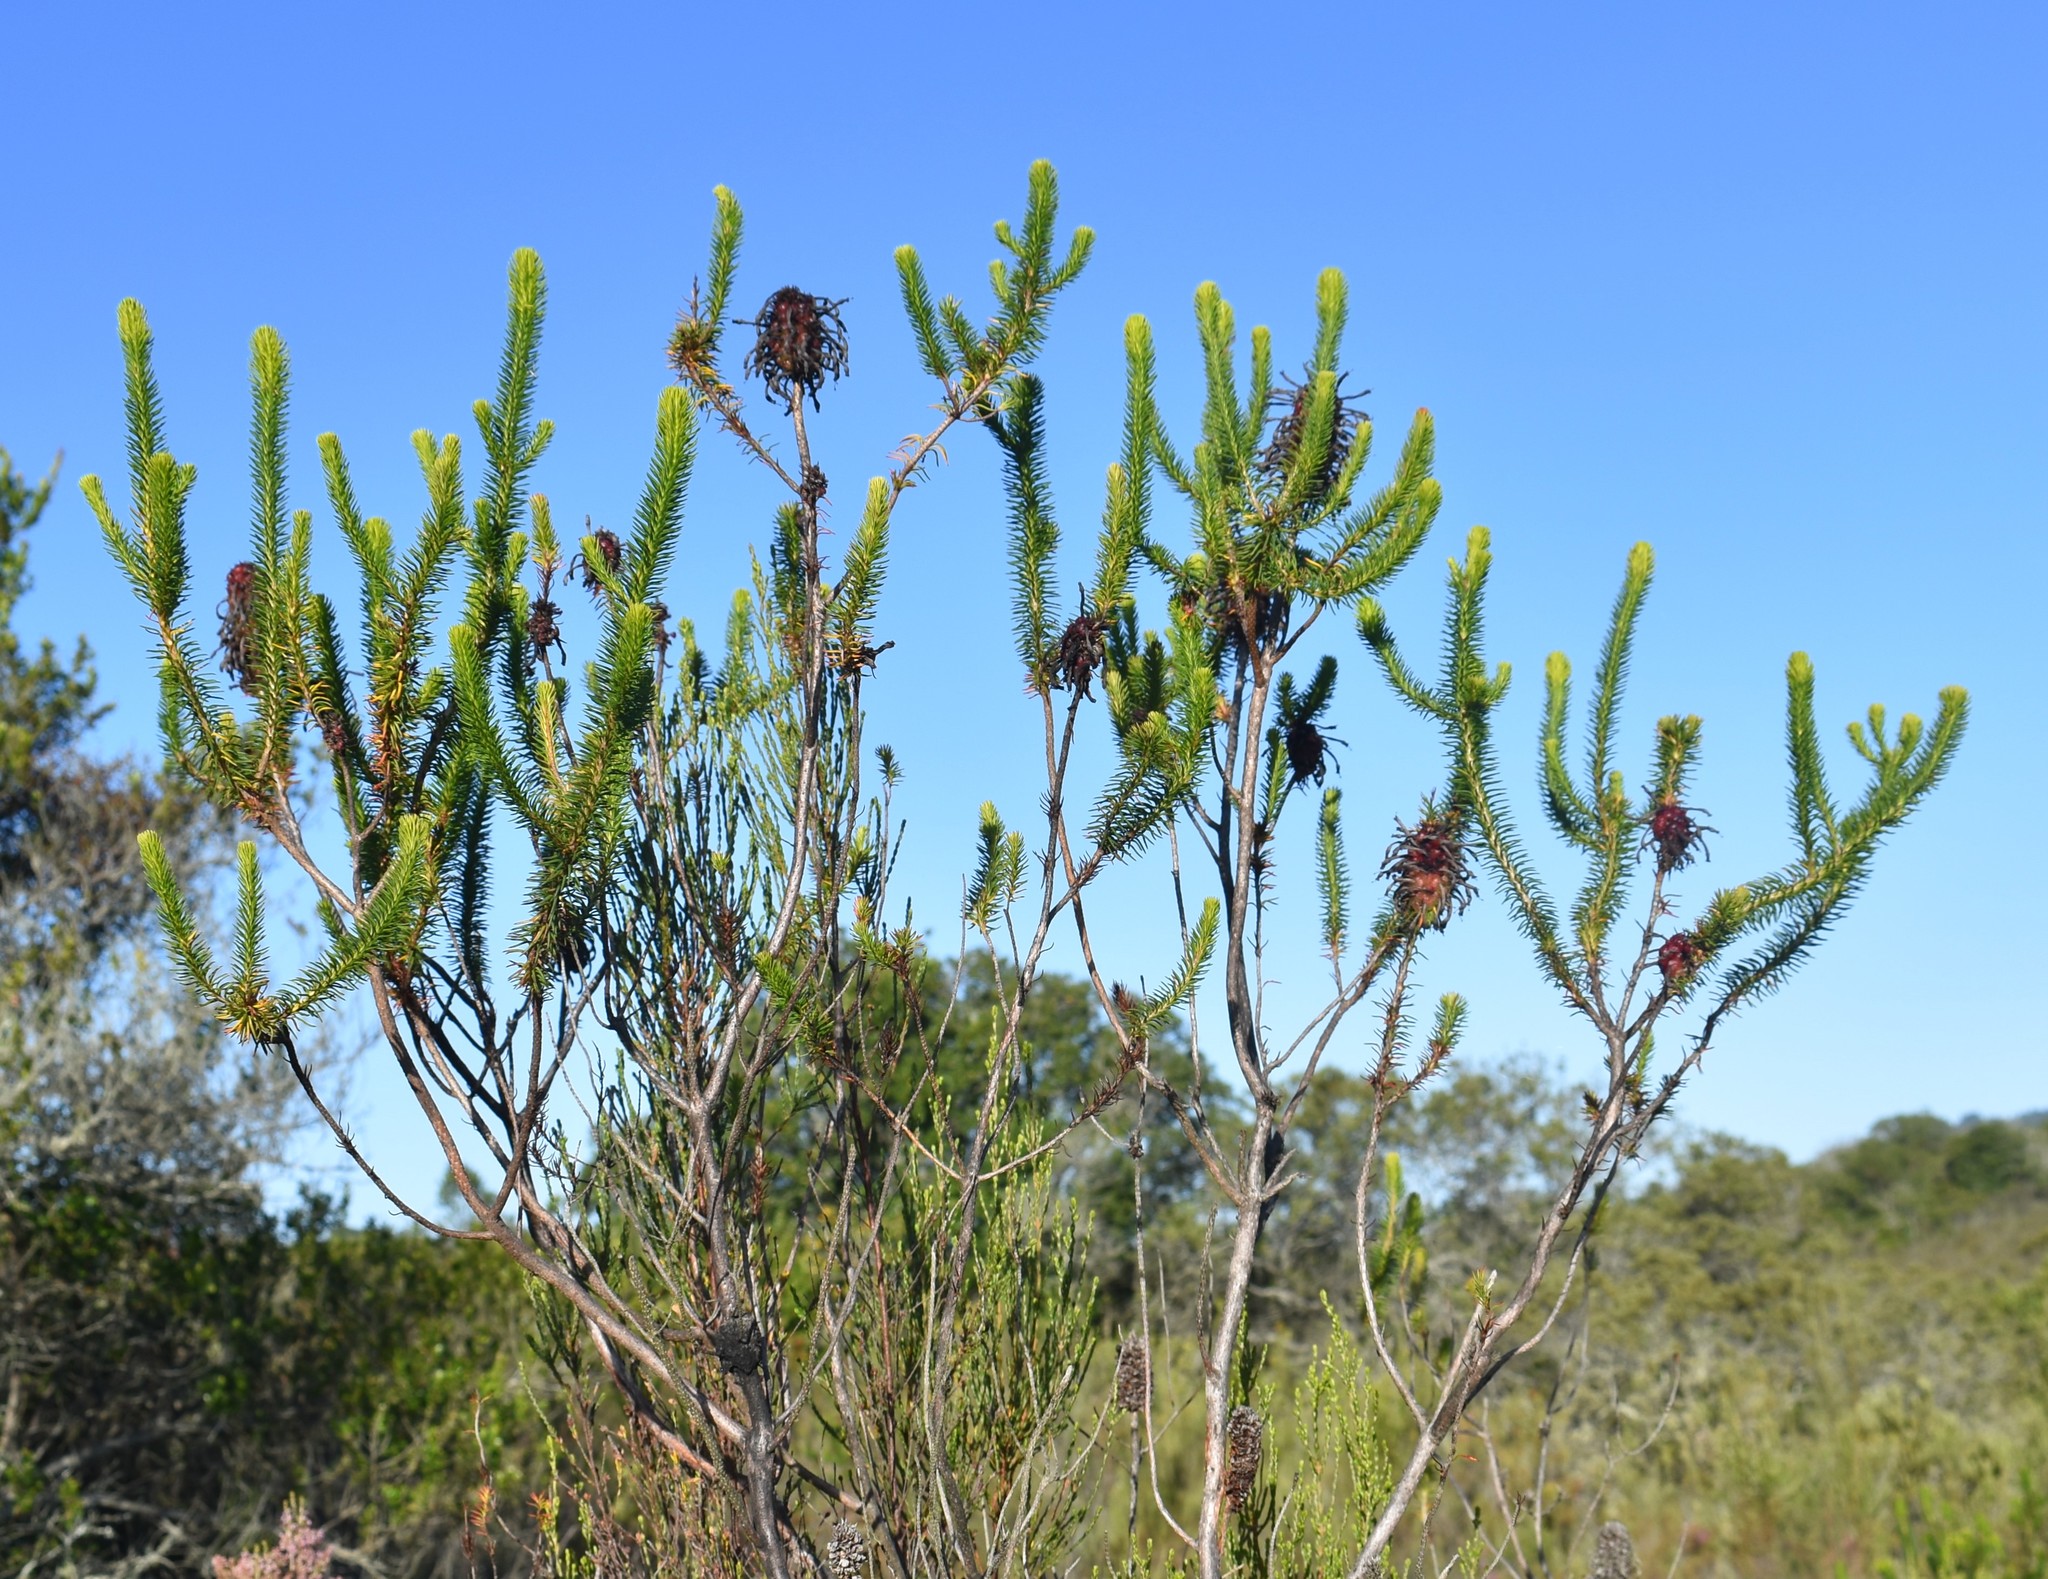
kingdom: Plantae
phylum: Tracheophyta
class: Magnoliopsida
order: Ericales
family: Ericaceae
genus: Erica
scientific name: Erica sessiliflora
